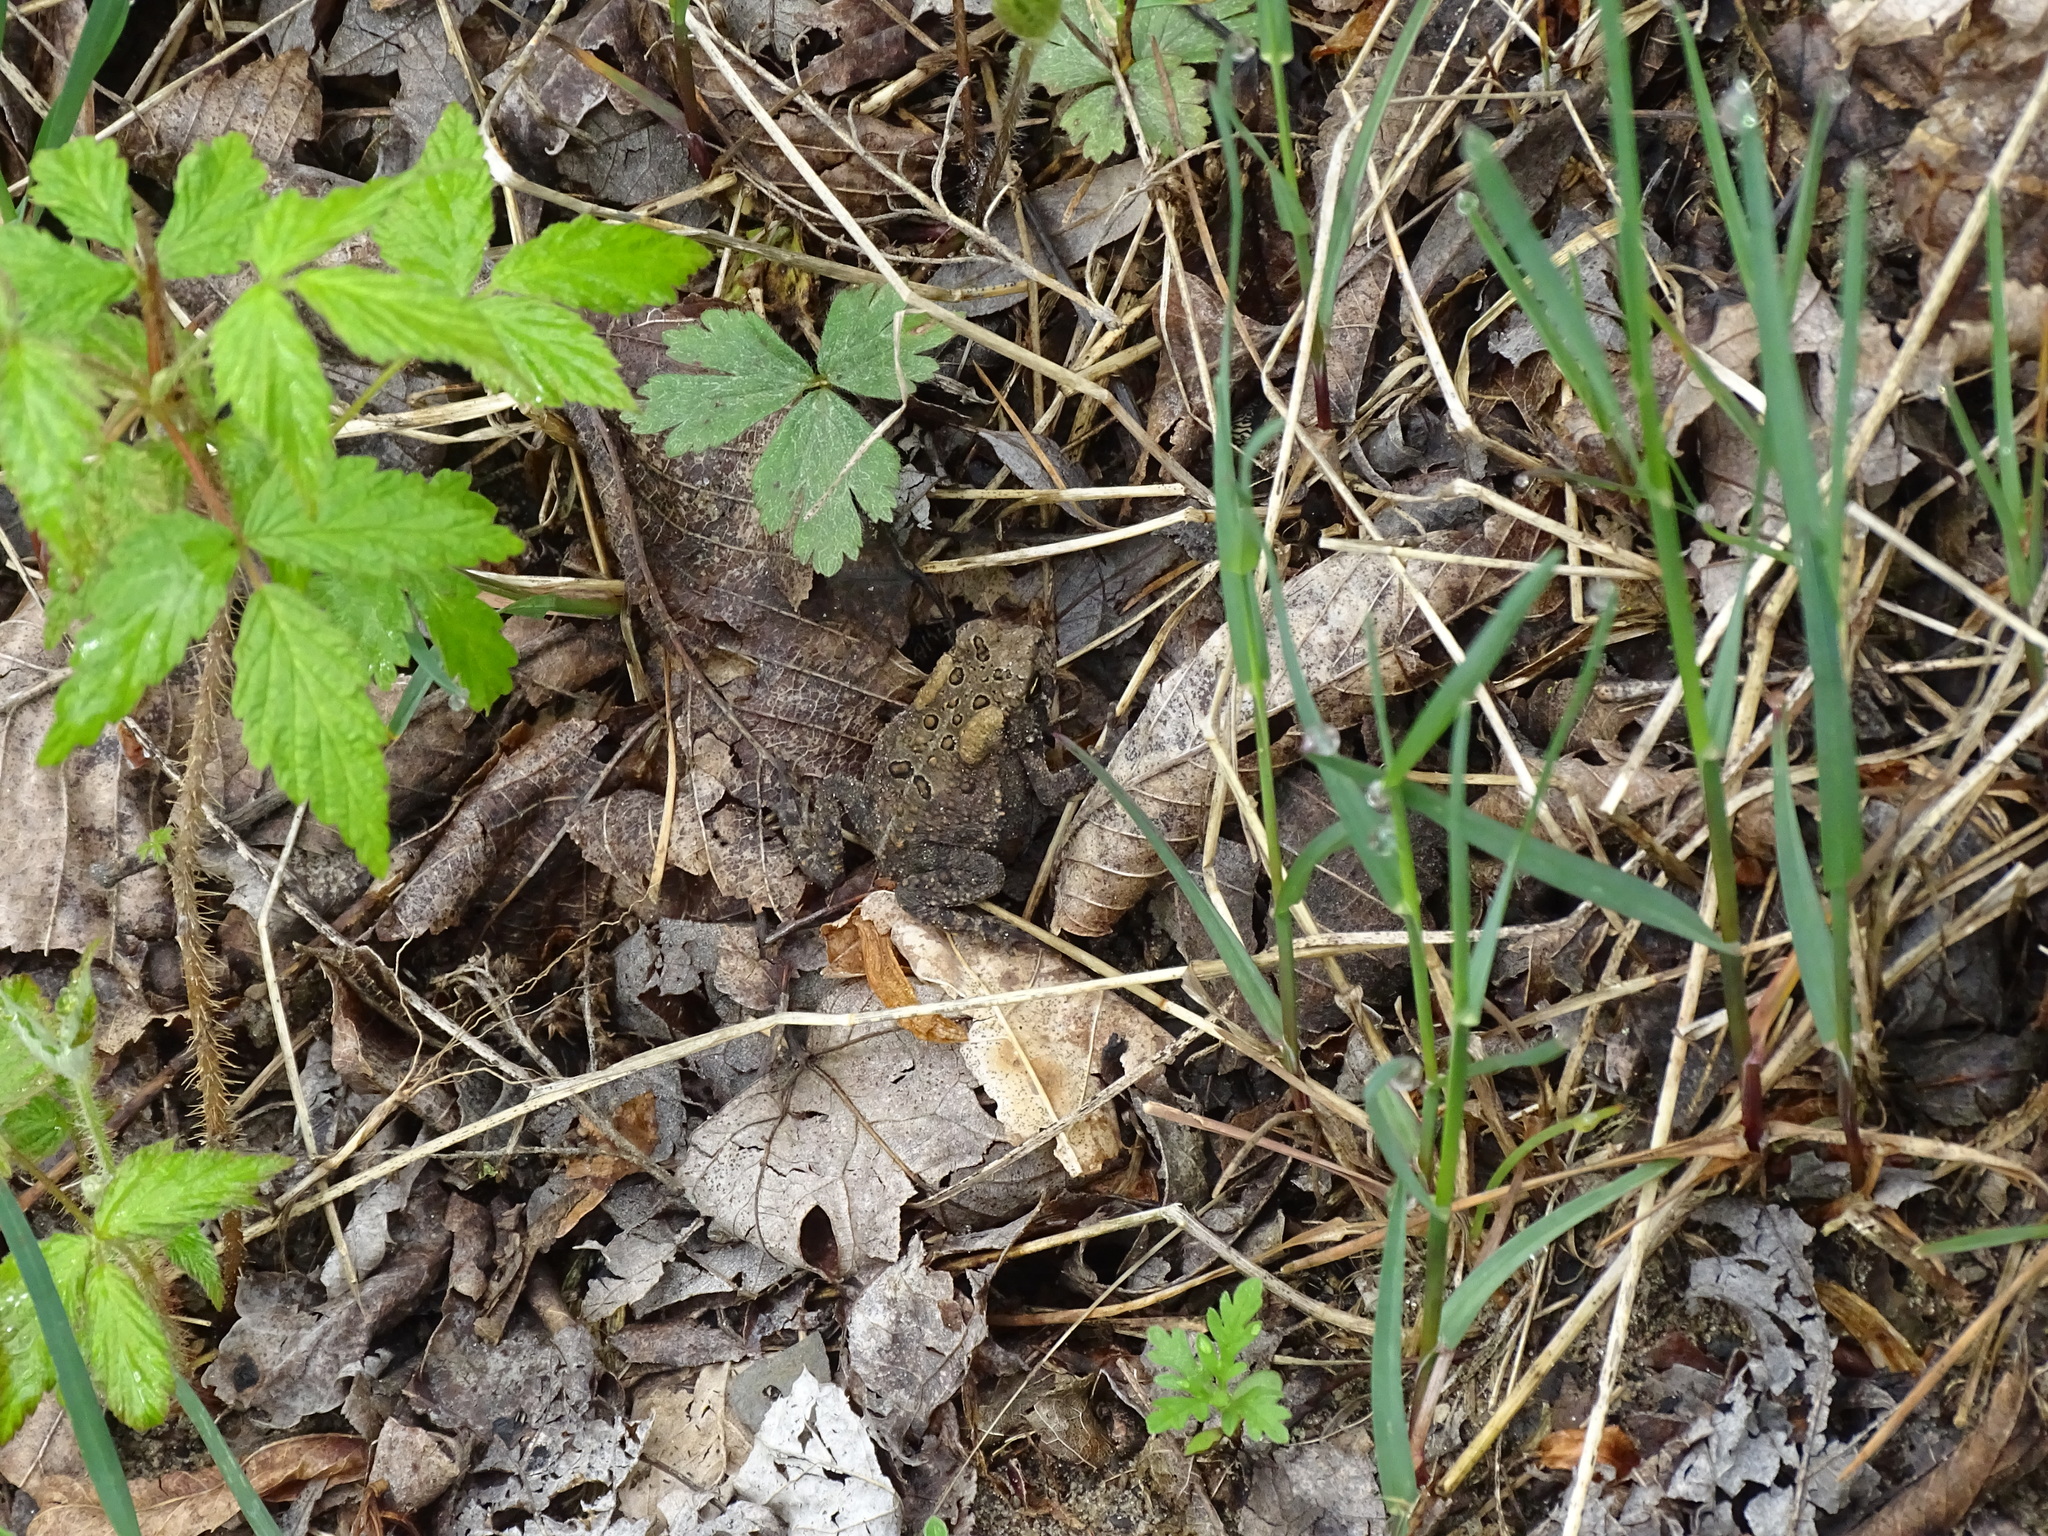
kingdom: Animalia
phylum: Chordata
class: Amphibia
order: Anura
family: Bufonidae
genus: Anaxyrus
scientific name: Anaxyrus americanus
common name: American toad
